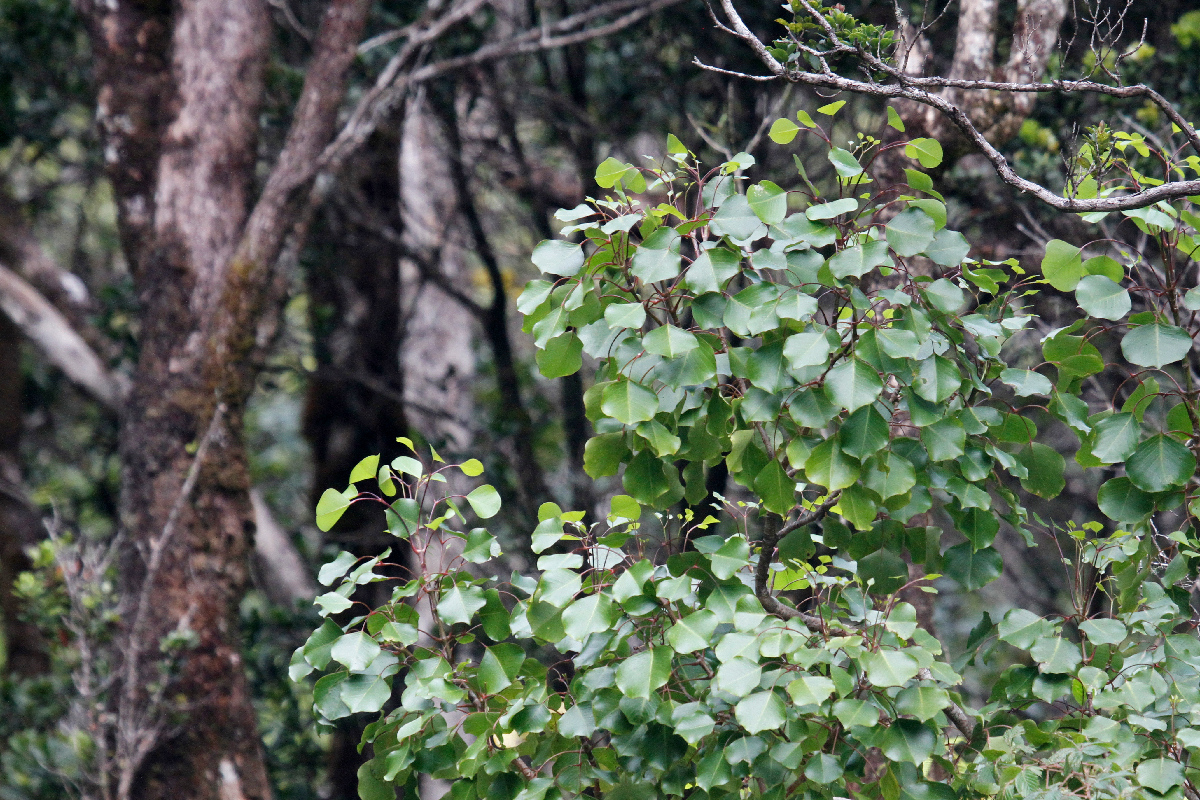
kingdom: Plantae
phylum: Tracheophyta
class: Magnoliopsida
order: Apiales
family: Araliaceae
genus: Cheirodendron
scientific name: Cheirodendron trigynum
